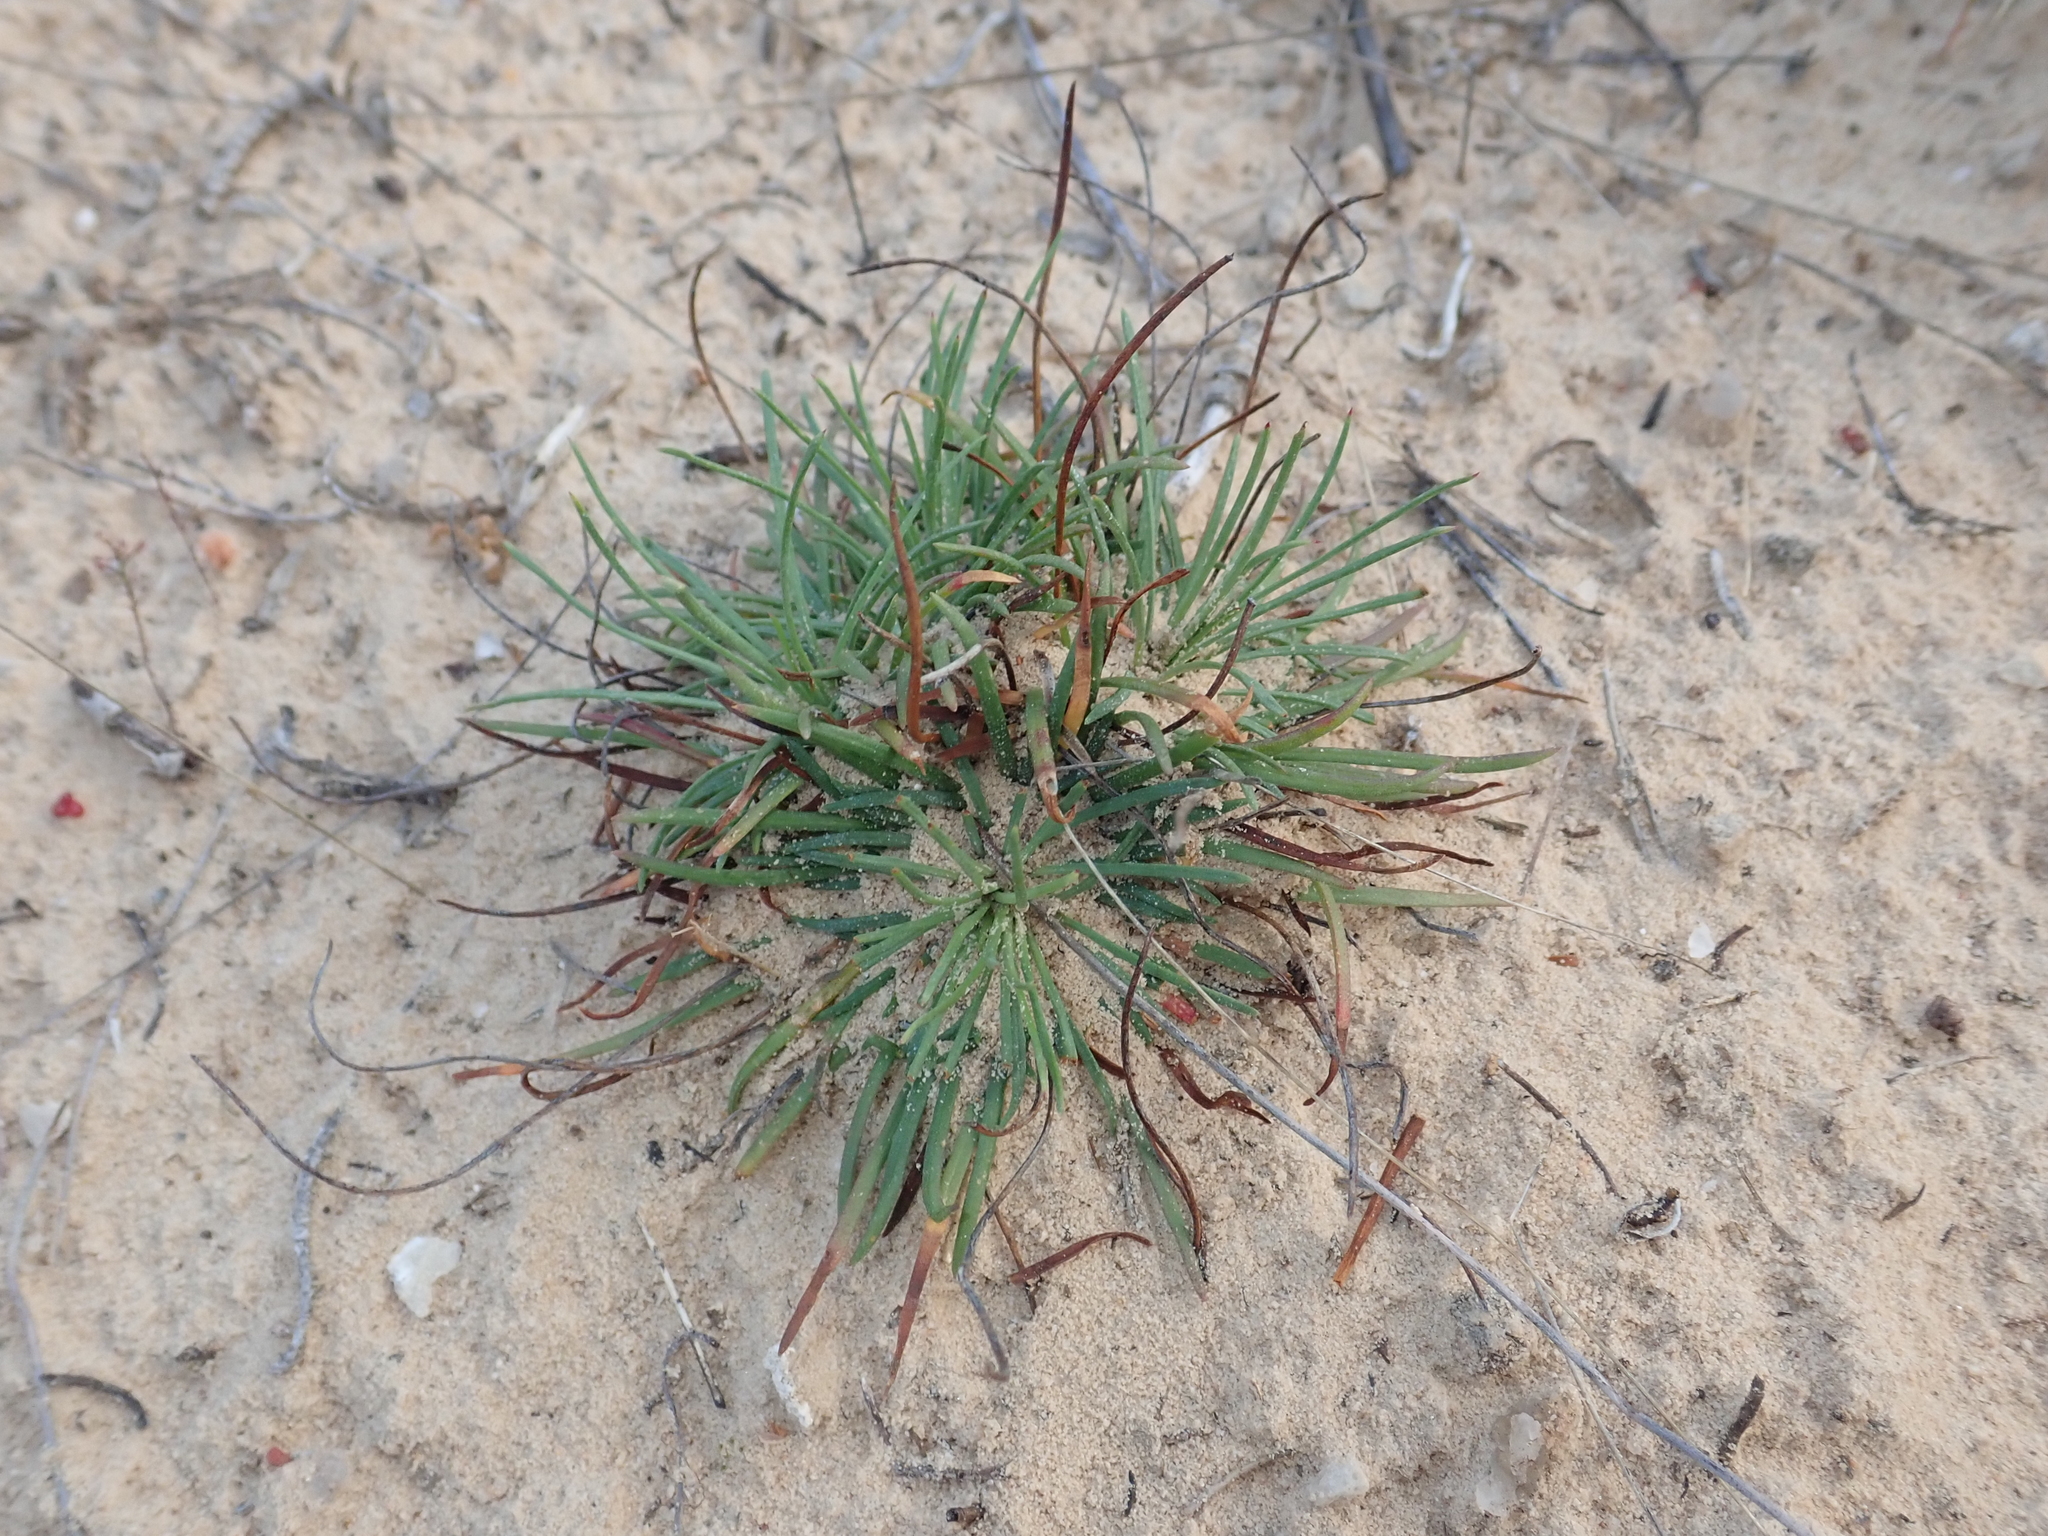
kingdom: Plantae
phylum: Tracheophyta
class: Magnoliopsida
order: Caryophyllales
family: Plumbaginaceae
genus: Armeria
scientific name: Armeria girardii
